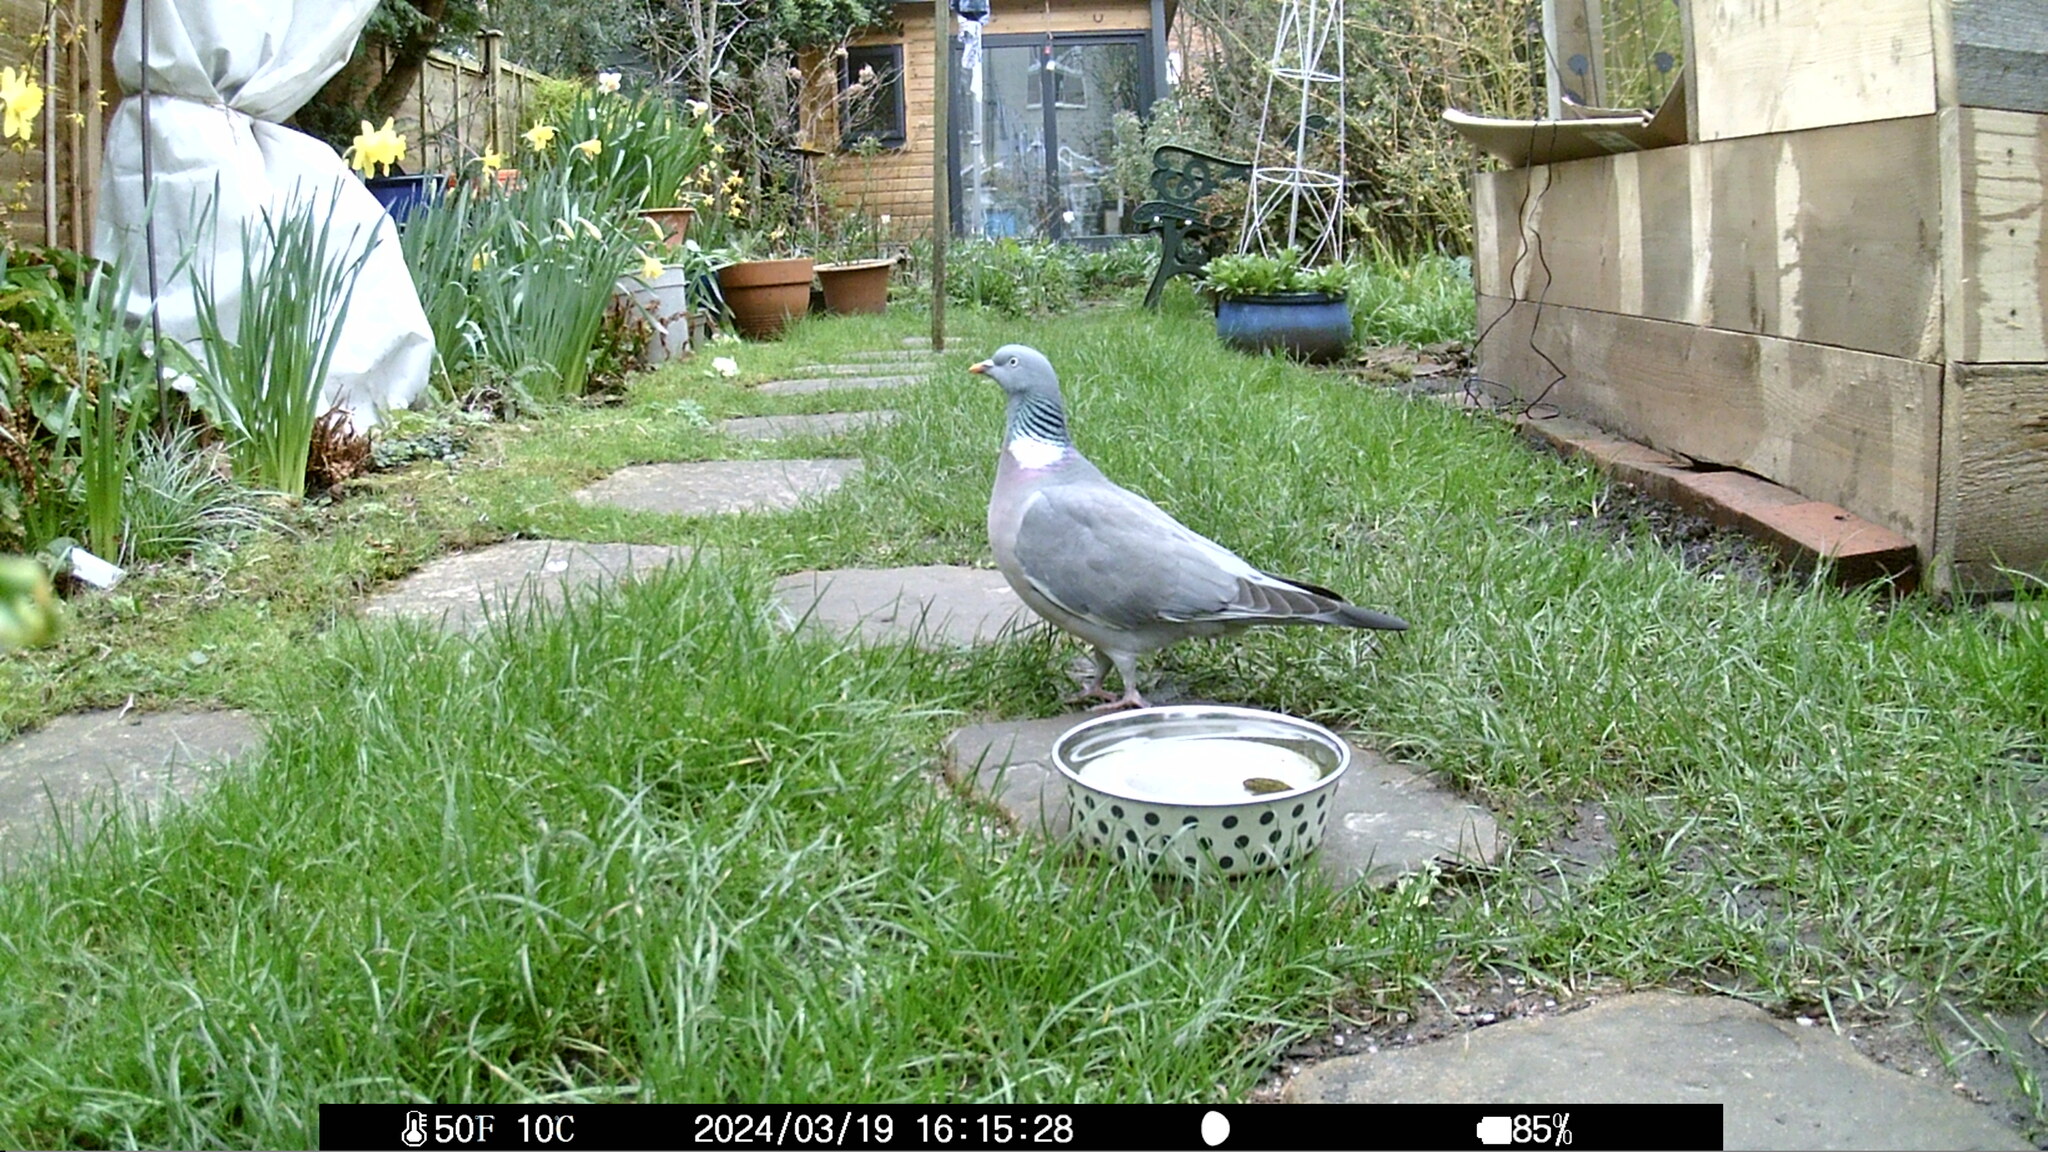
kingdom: Animalia
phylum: Chordata
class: Aves
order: Columbiformes
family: Columbidae
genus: Columba
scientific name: Columba palumbus
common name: Common wood pigeon
